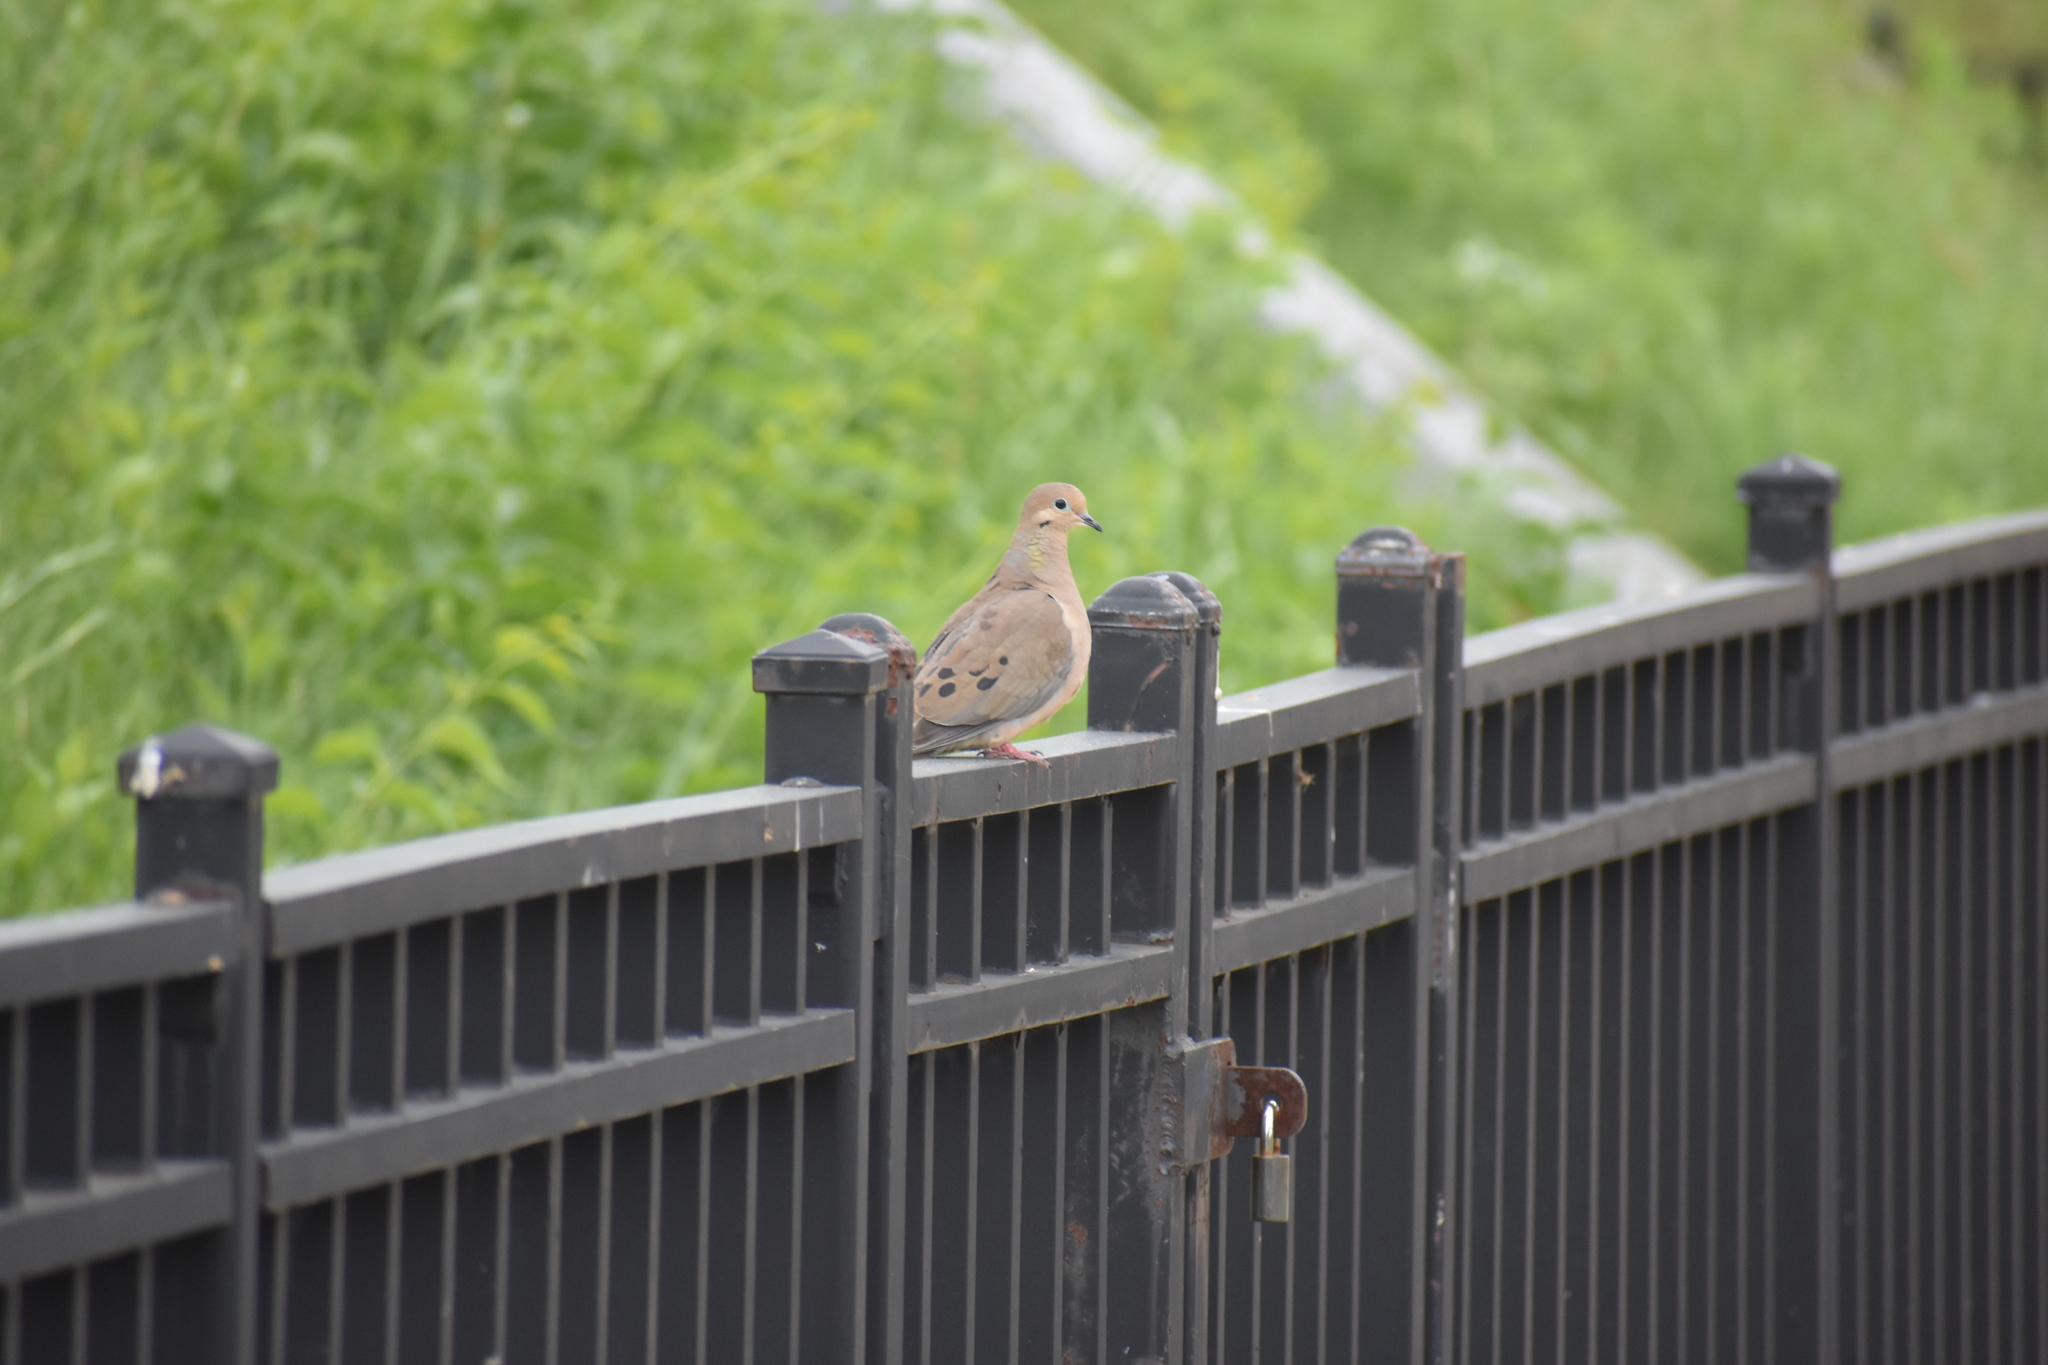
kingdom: Animalia
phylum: Chordata
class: Aves
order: Columbiformes
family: Columbidae
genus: Zenaida
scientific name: Zenaida macroura
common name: Mourning dove
